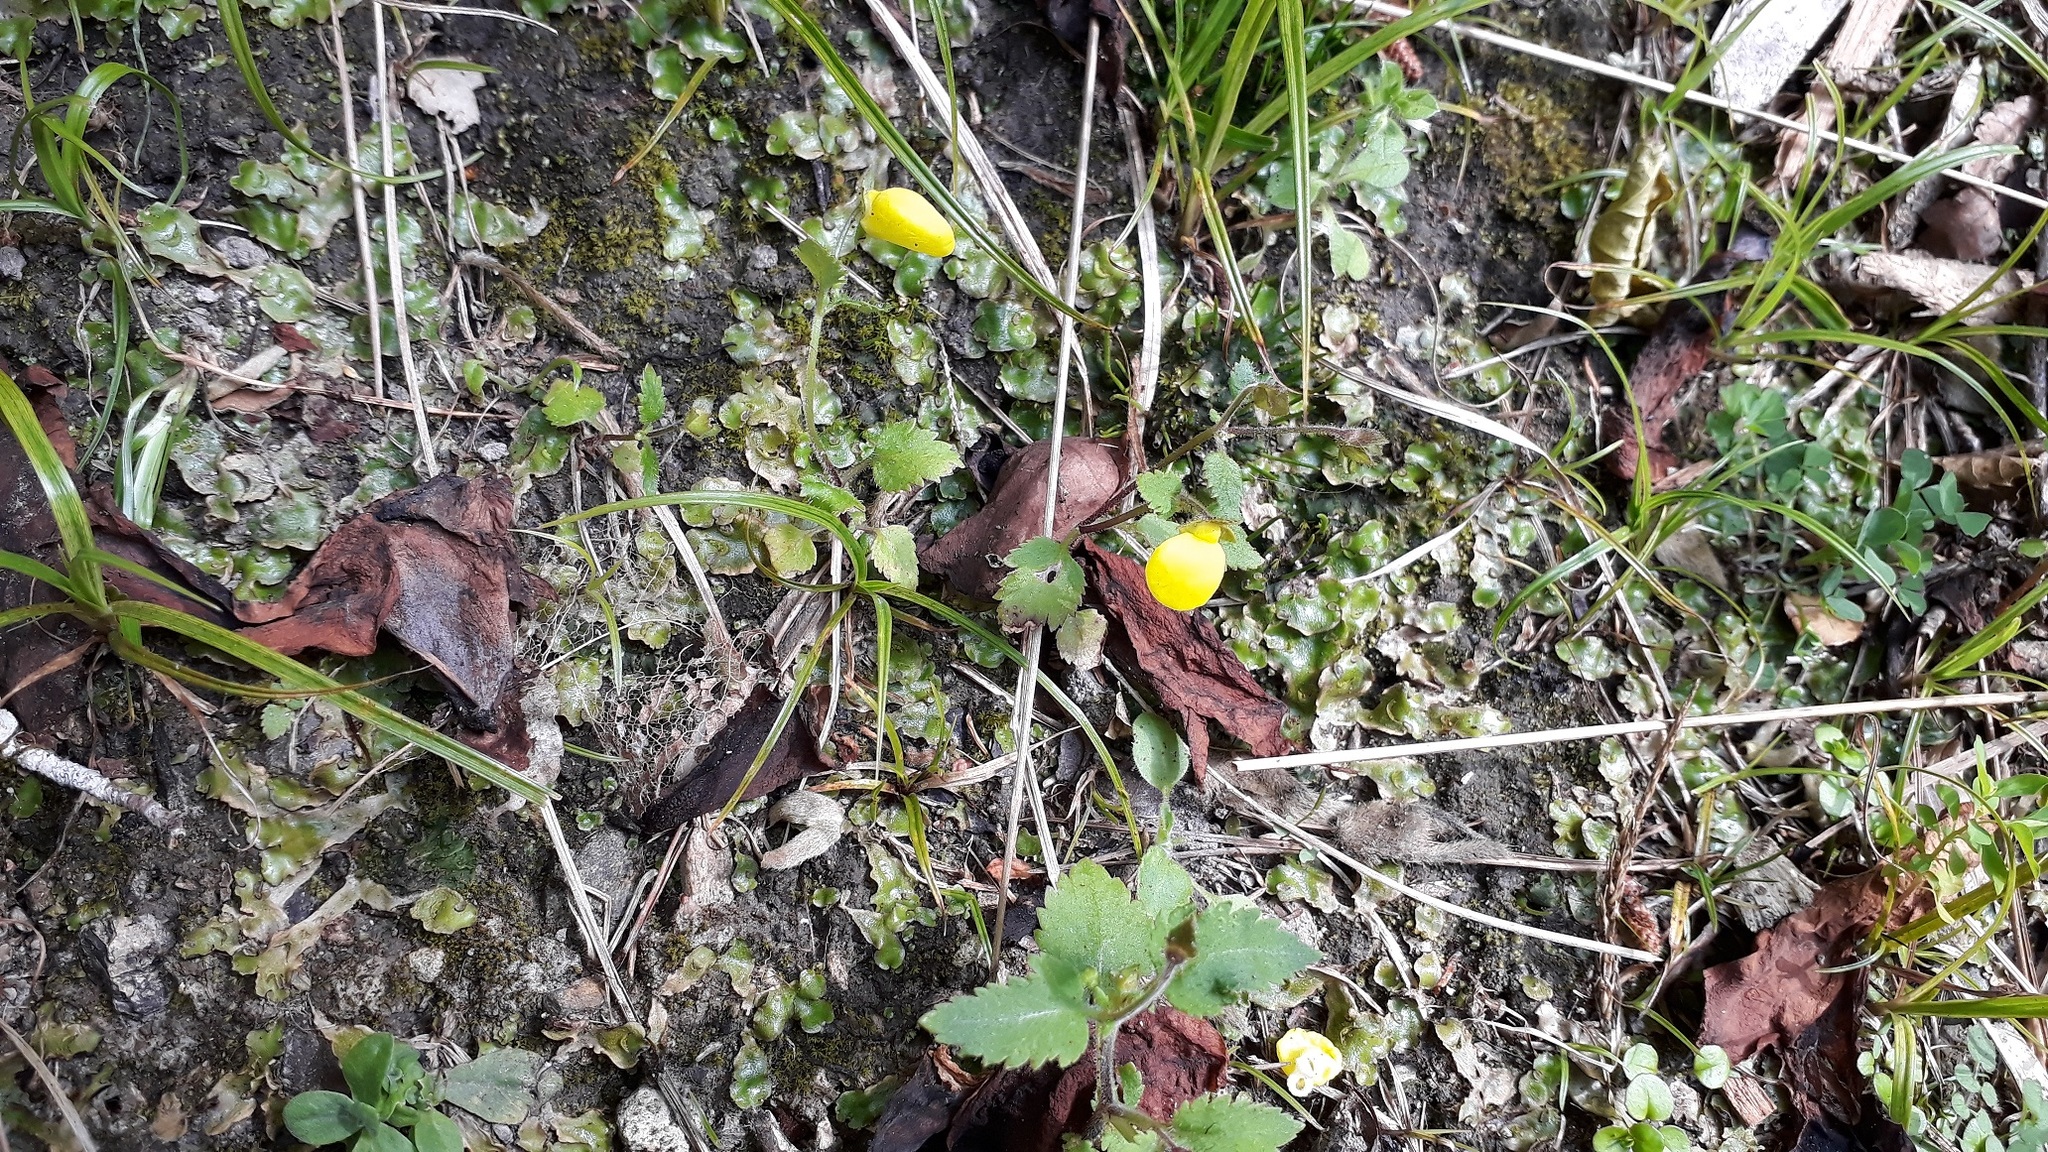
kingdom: Plantae
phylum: Tracheophyta
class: Magnoliopsida
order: Lamiales
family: Calceolariaceae
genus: Calceolaria
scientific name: Calceolaria tripartita
